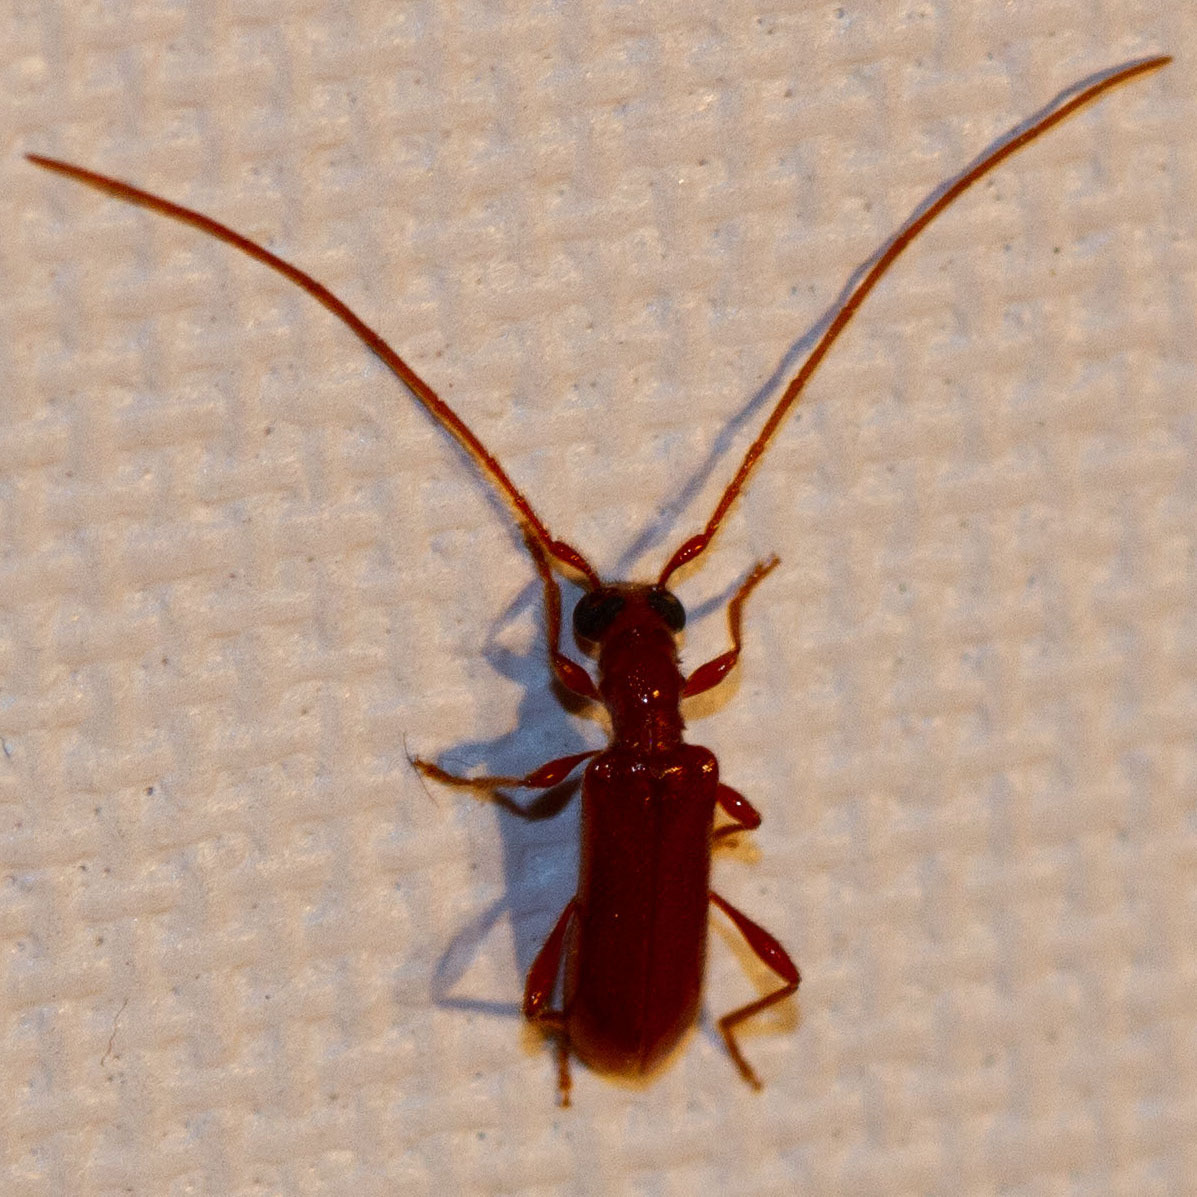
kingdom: Animalia
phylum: Arthropoda
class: Insecta
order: Coleoptera
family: Cerambycidae
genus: Obrium
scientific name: Obrium rufulum
